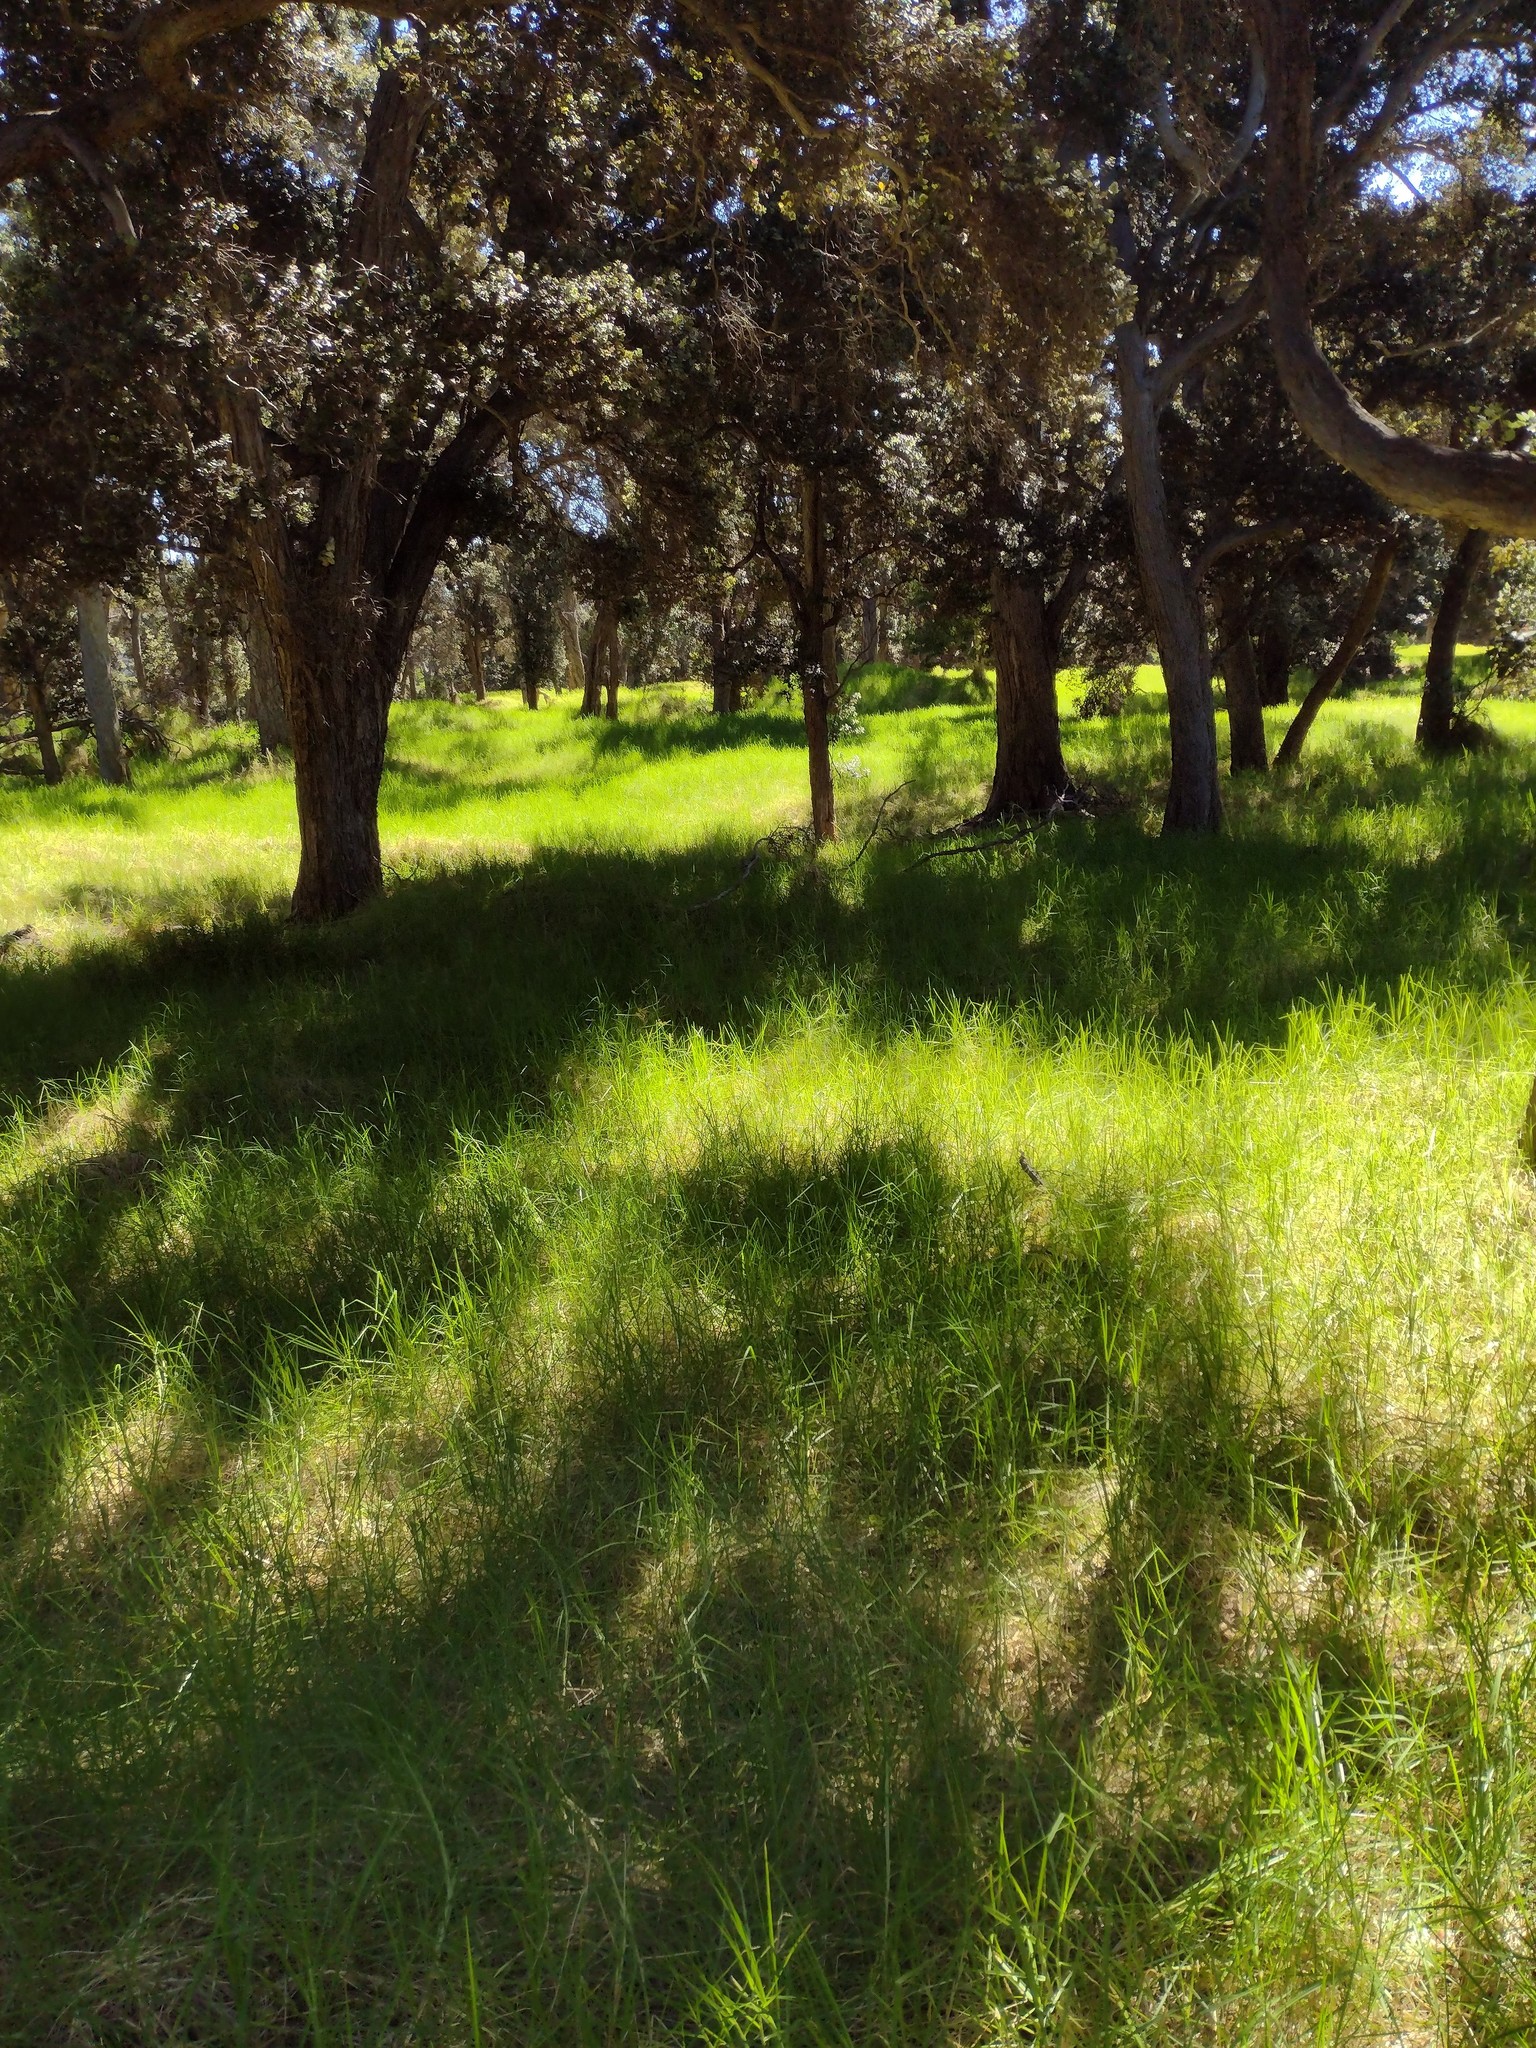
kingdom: Plantae
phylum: Tracheophyta
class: Liliopsida
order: Poales
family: Poaceae
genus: Cenchrus
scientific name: Cenchrus clandestinus
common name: Kikuyugrass
